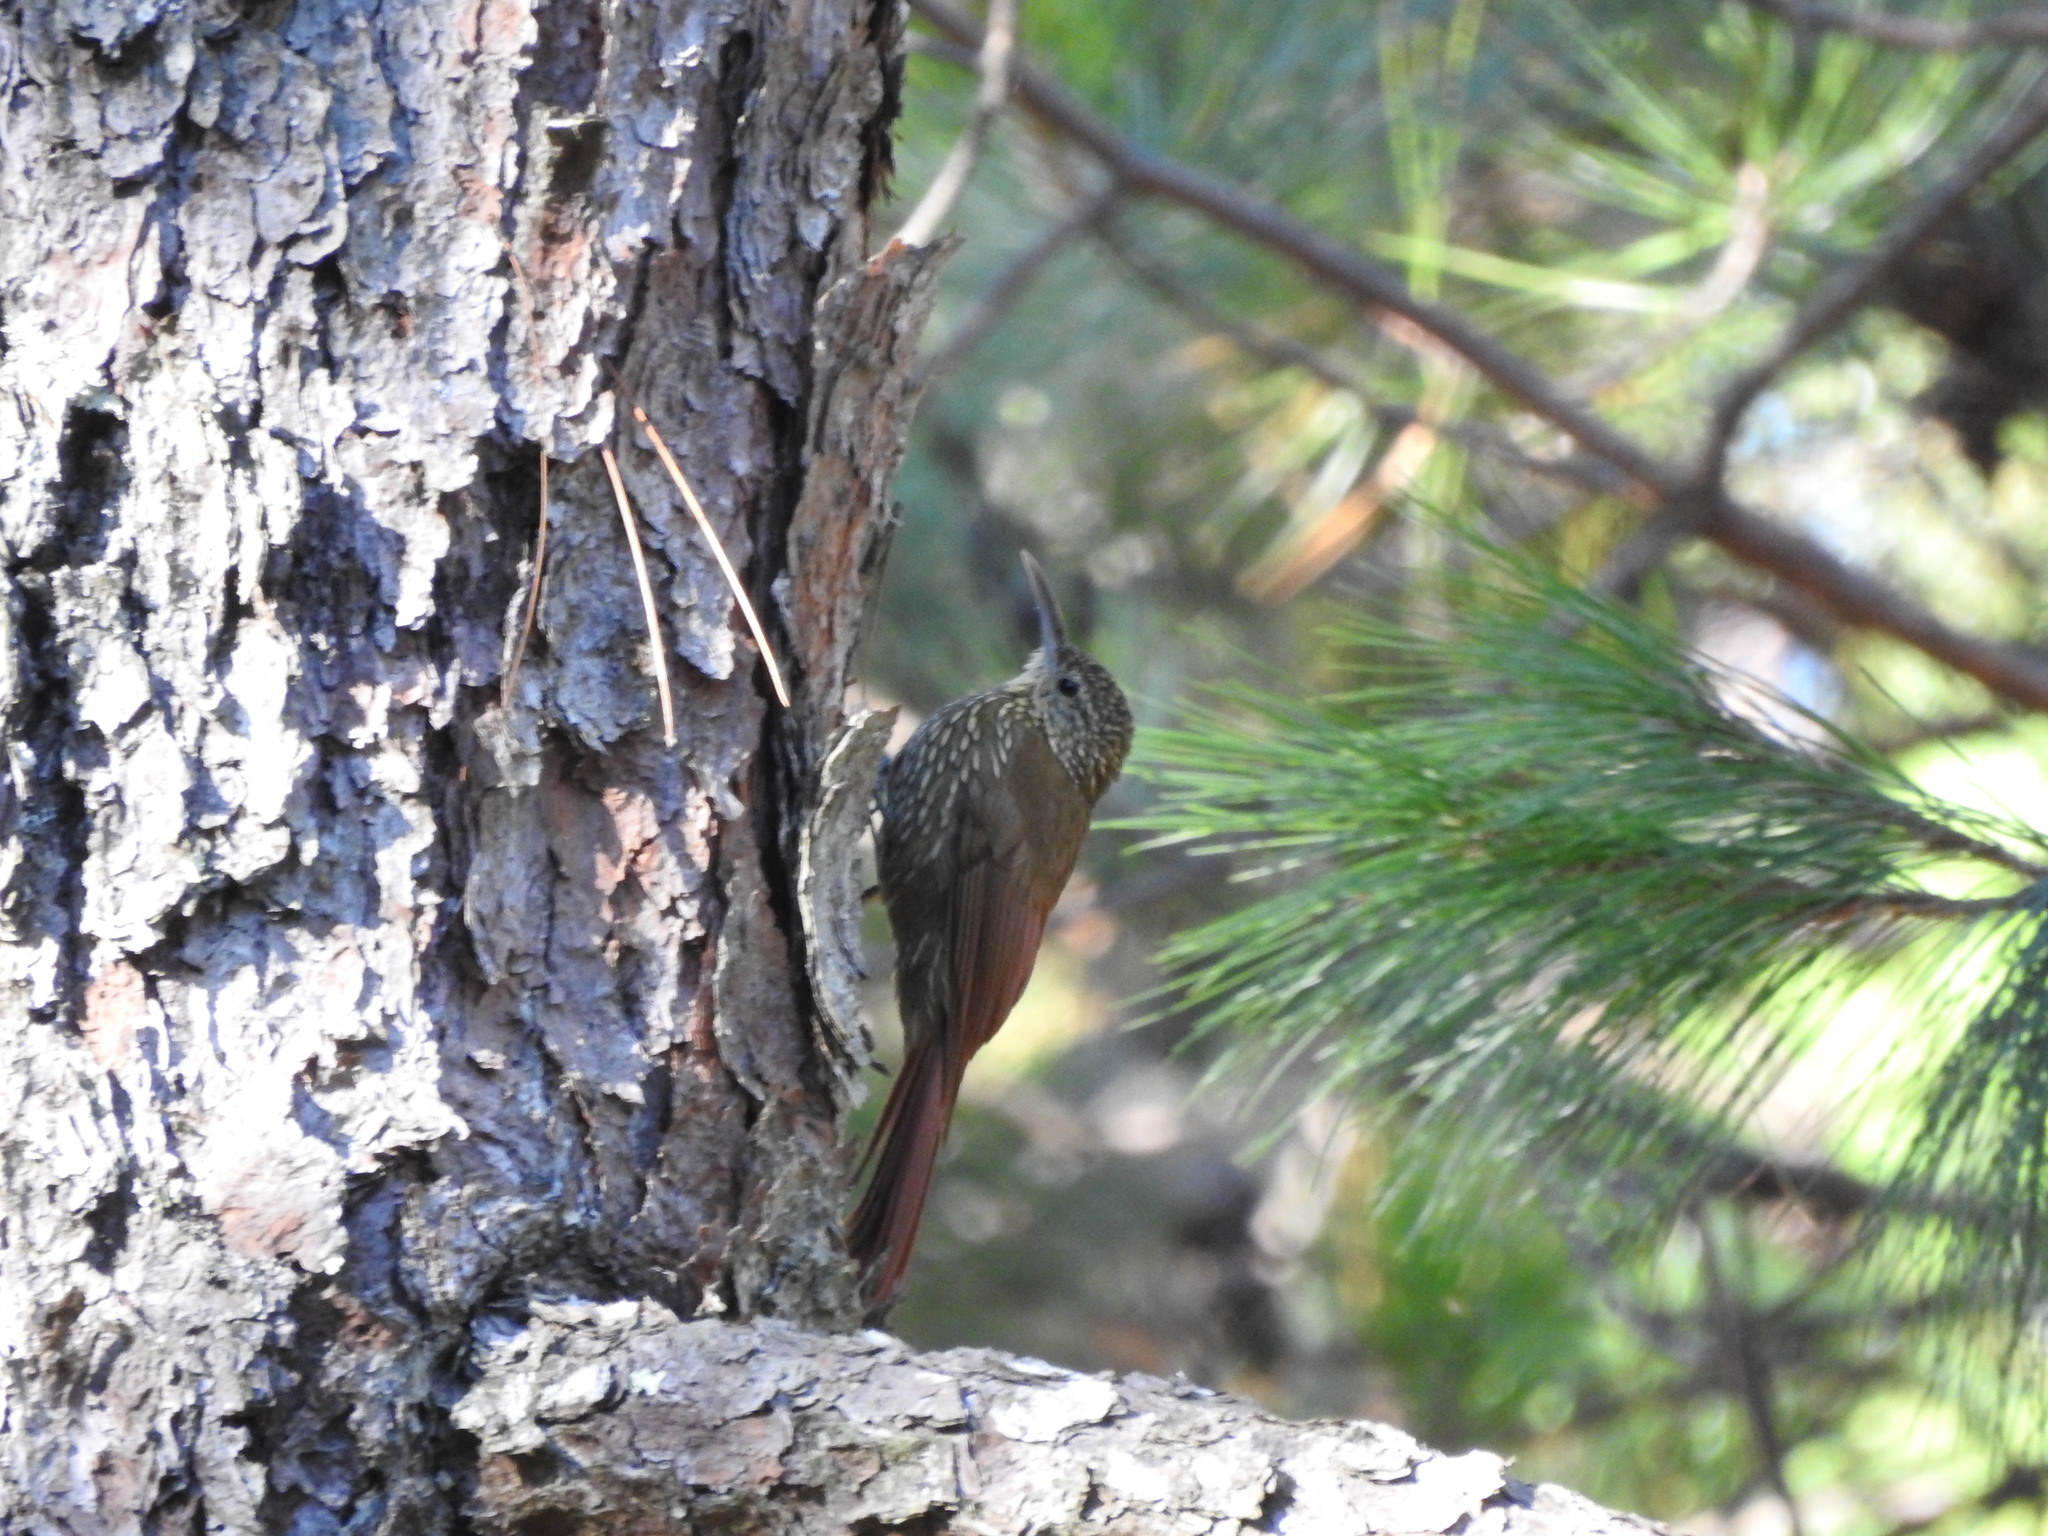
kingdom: Animalia
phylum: Chordata
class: Aves
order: Passeriformes
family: Furnariidae
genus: Lepidocolaptes
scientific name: Lepidocolaptes affinis
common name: Spot-crowned woodcreeper
